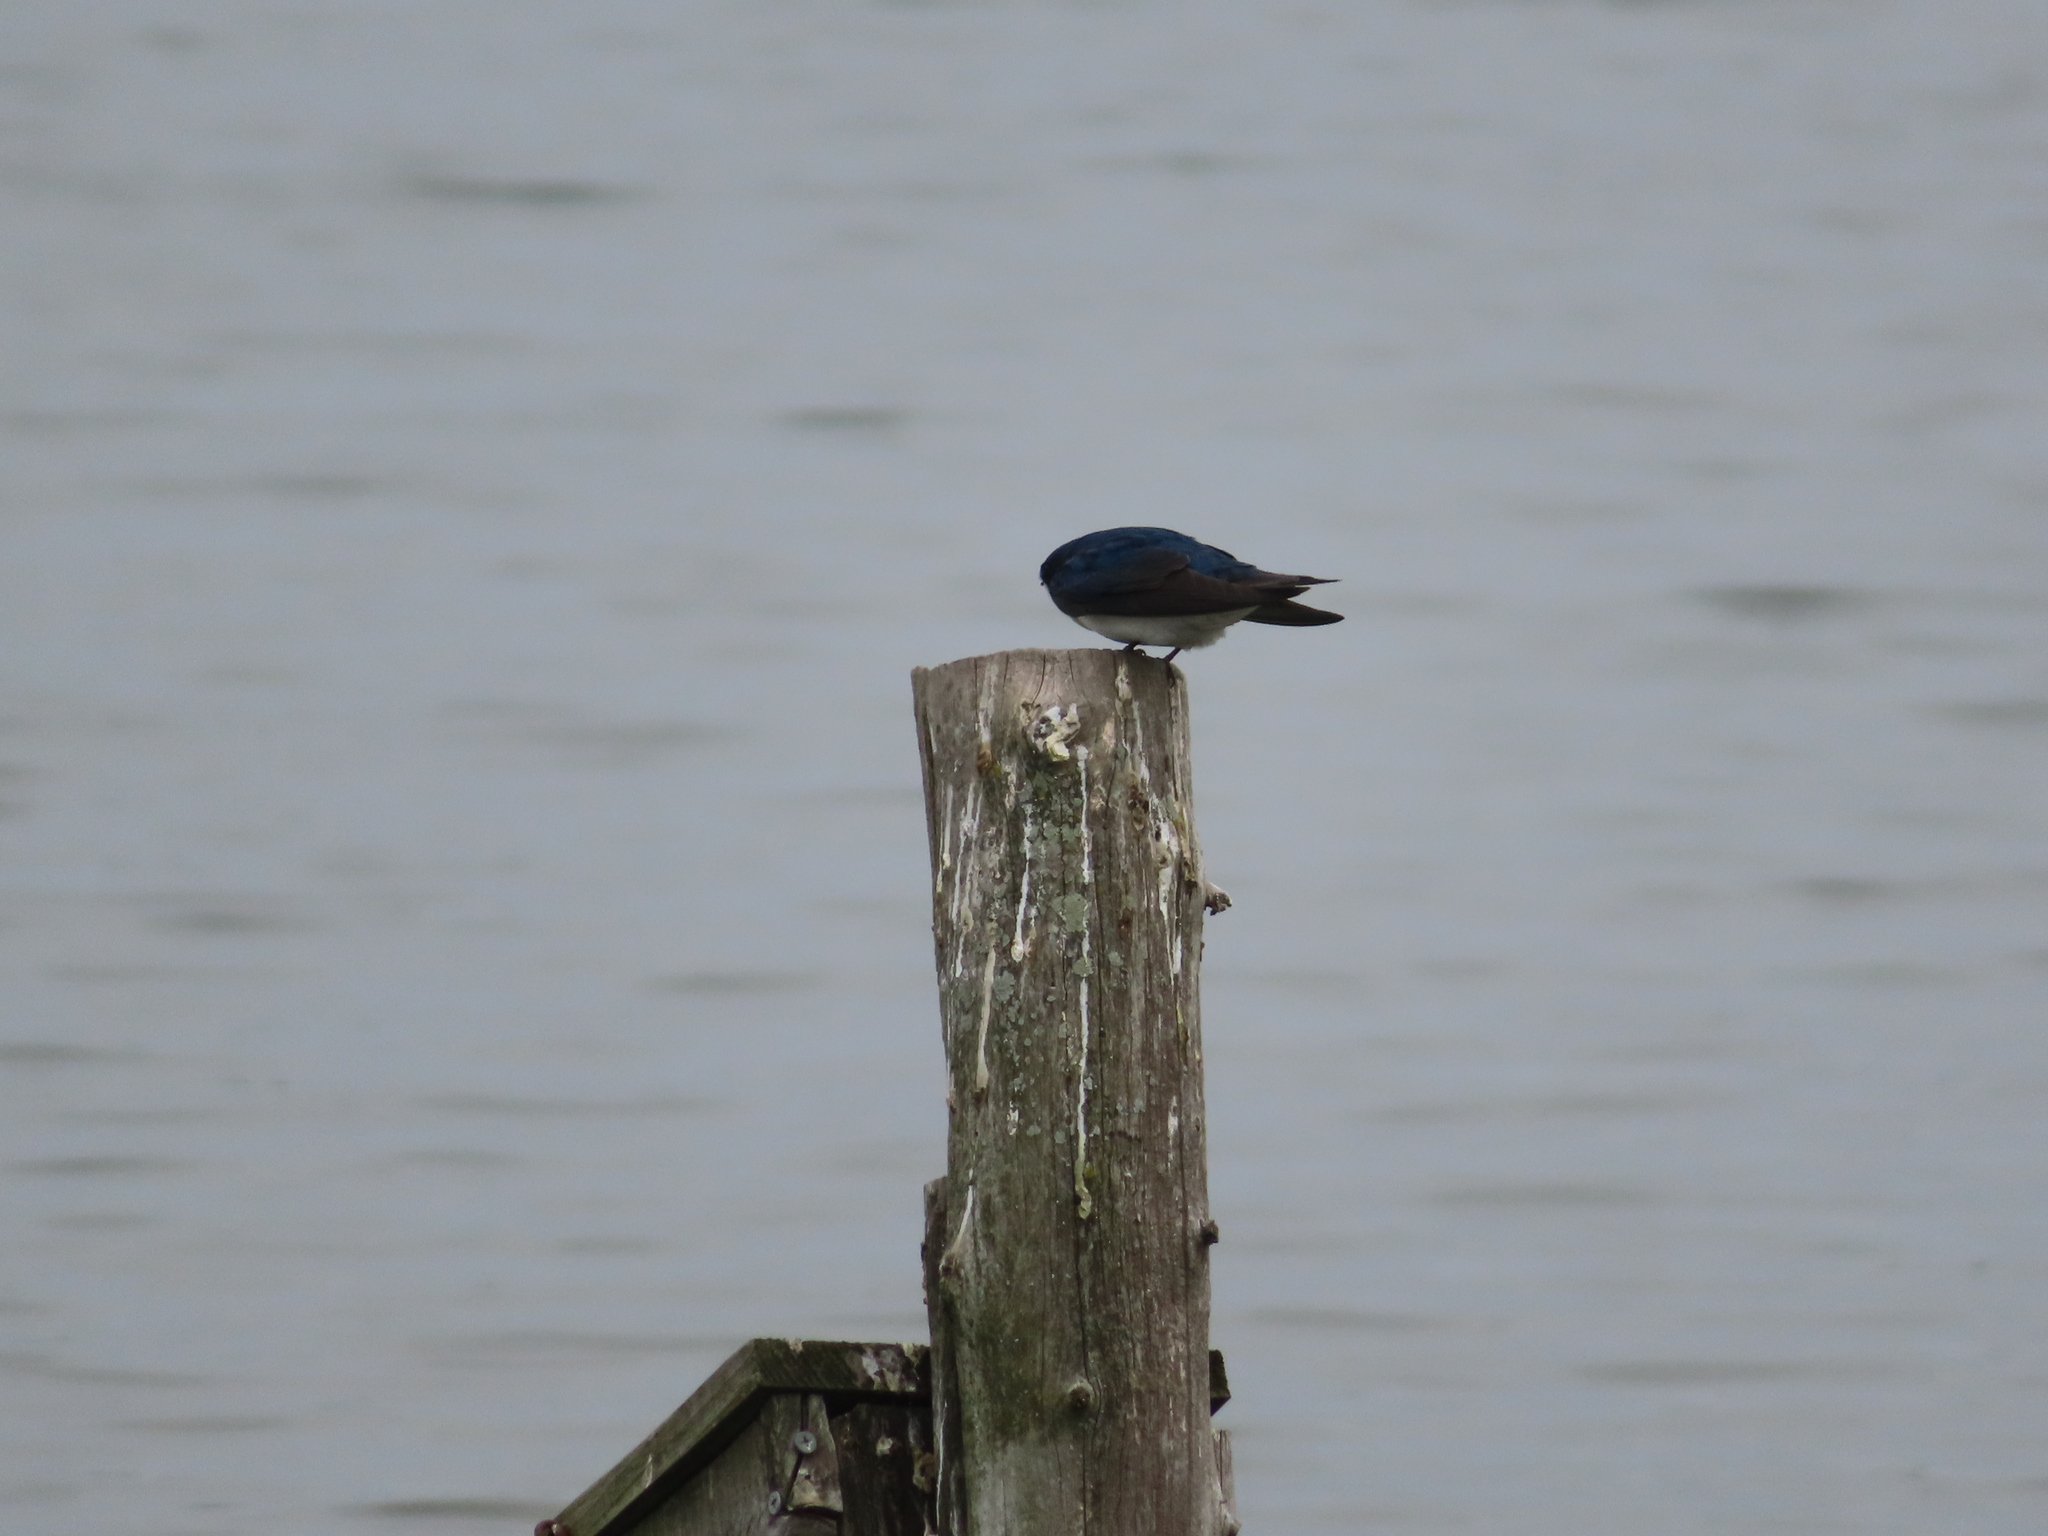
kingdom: Animalia
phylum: Chordata
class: Aves
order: Passeriformes
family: Hirundinidae
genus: Tachycineta
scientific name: Tachycineta bicolor
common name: Tree swallow
